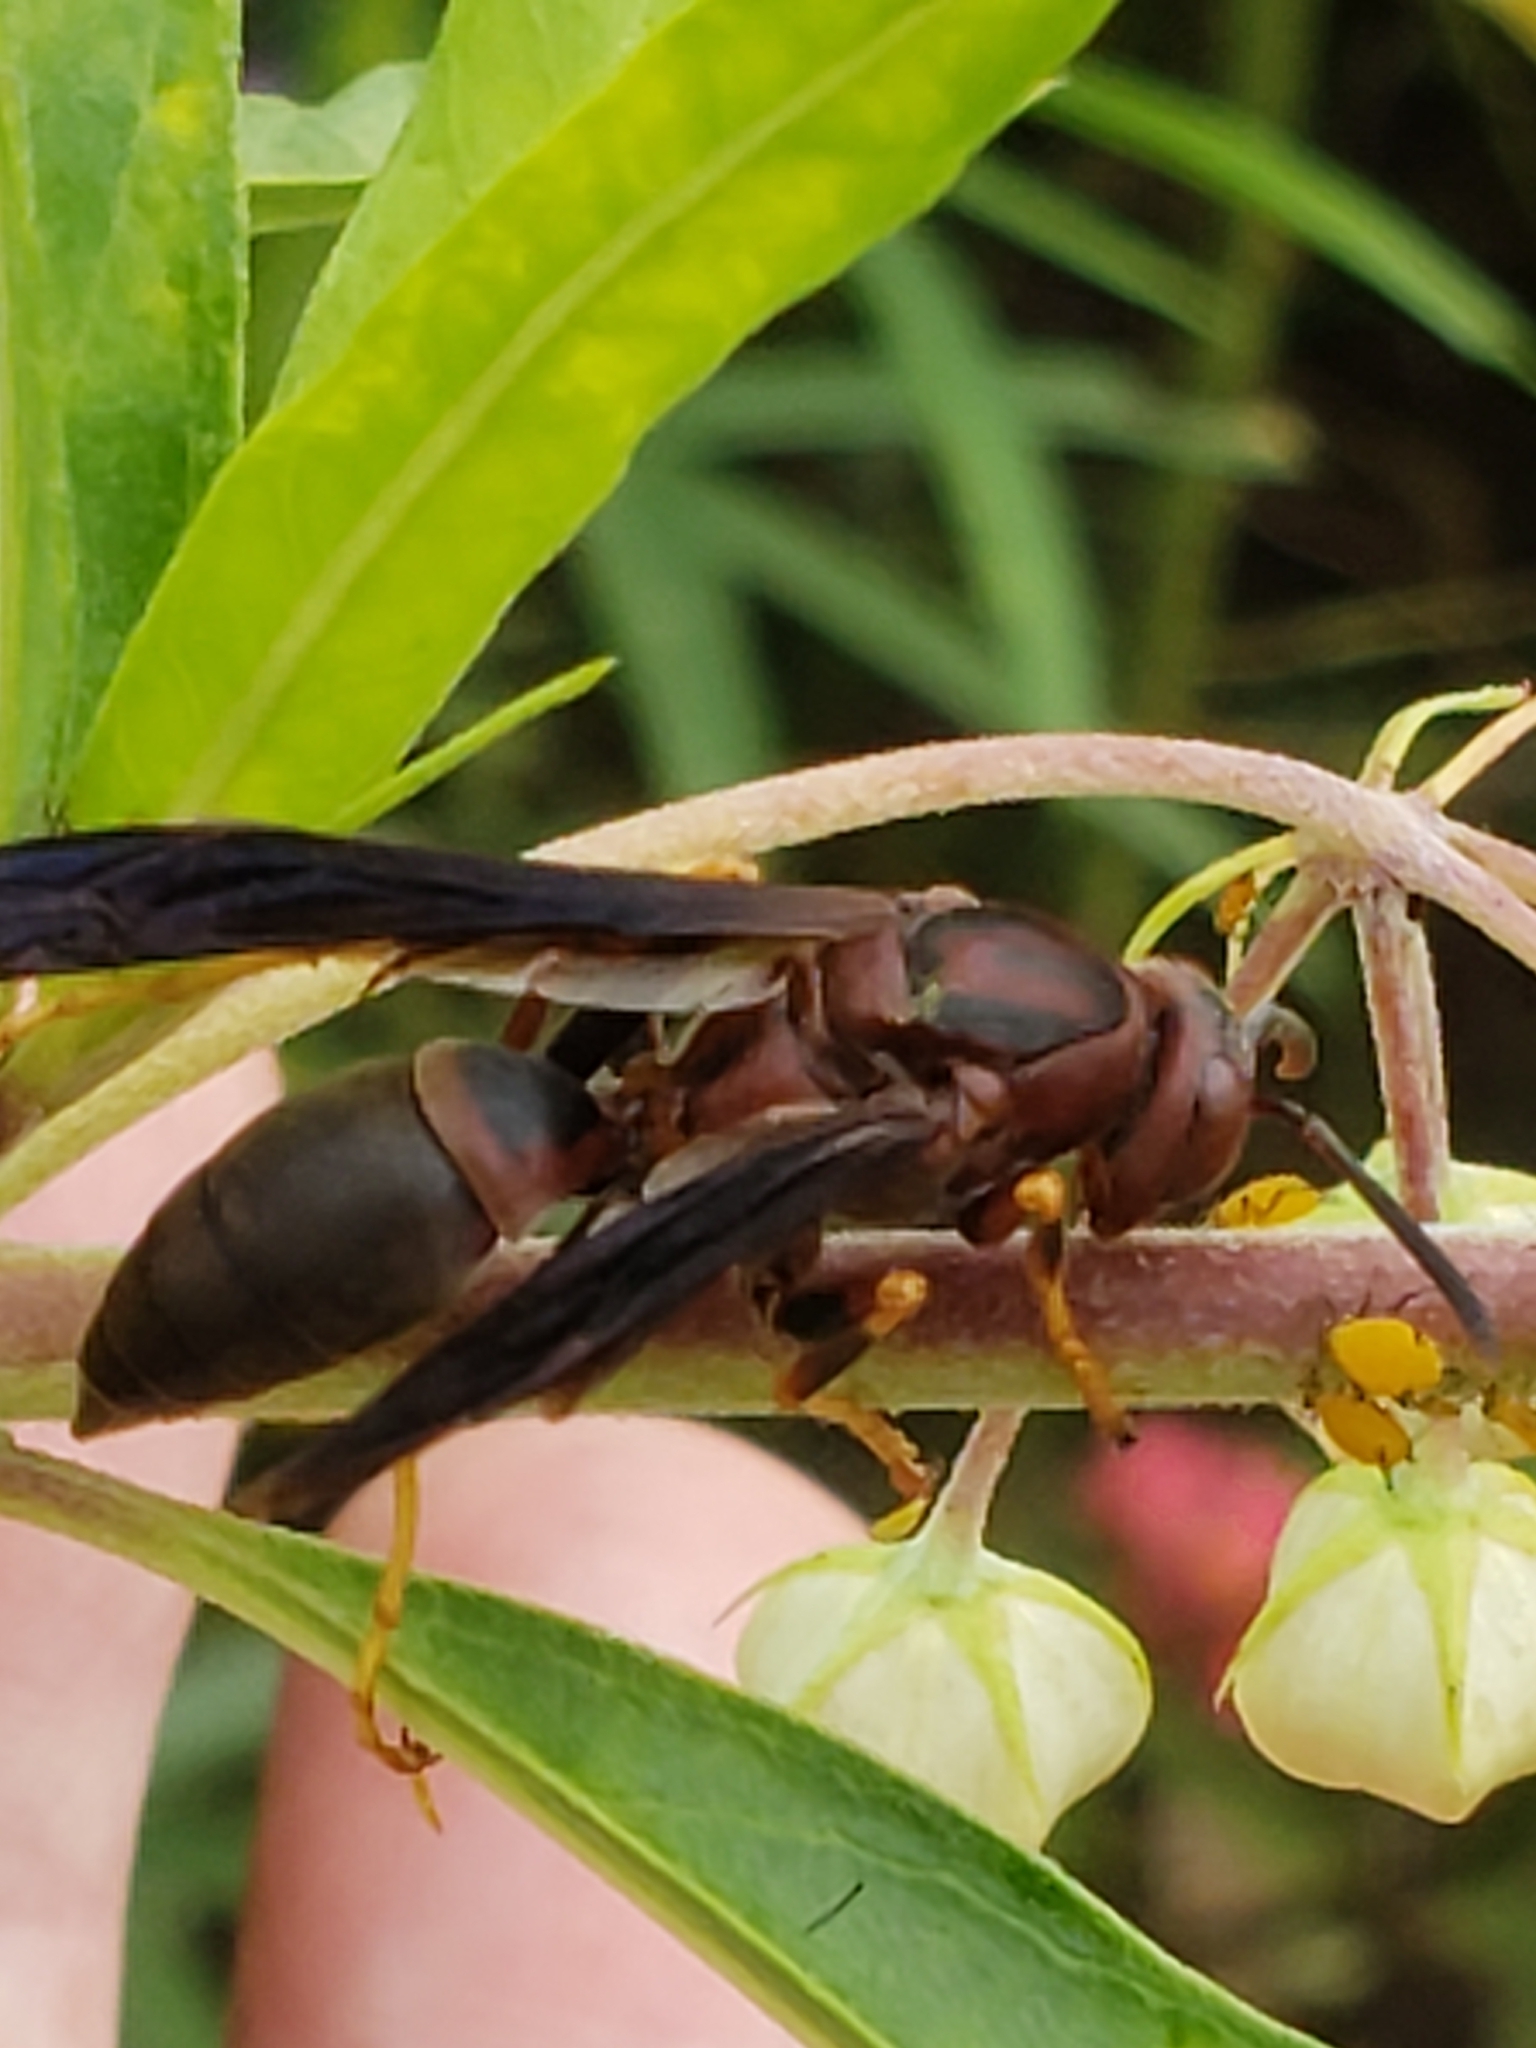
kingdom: Animalia
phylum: Arthropoda
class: Insecta
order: Hymenoptera
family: Eumenidae
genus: Polistes
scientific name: Polistes metricus
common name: Metric paper wasp
